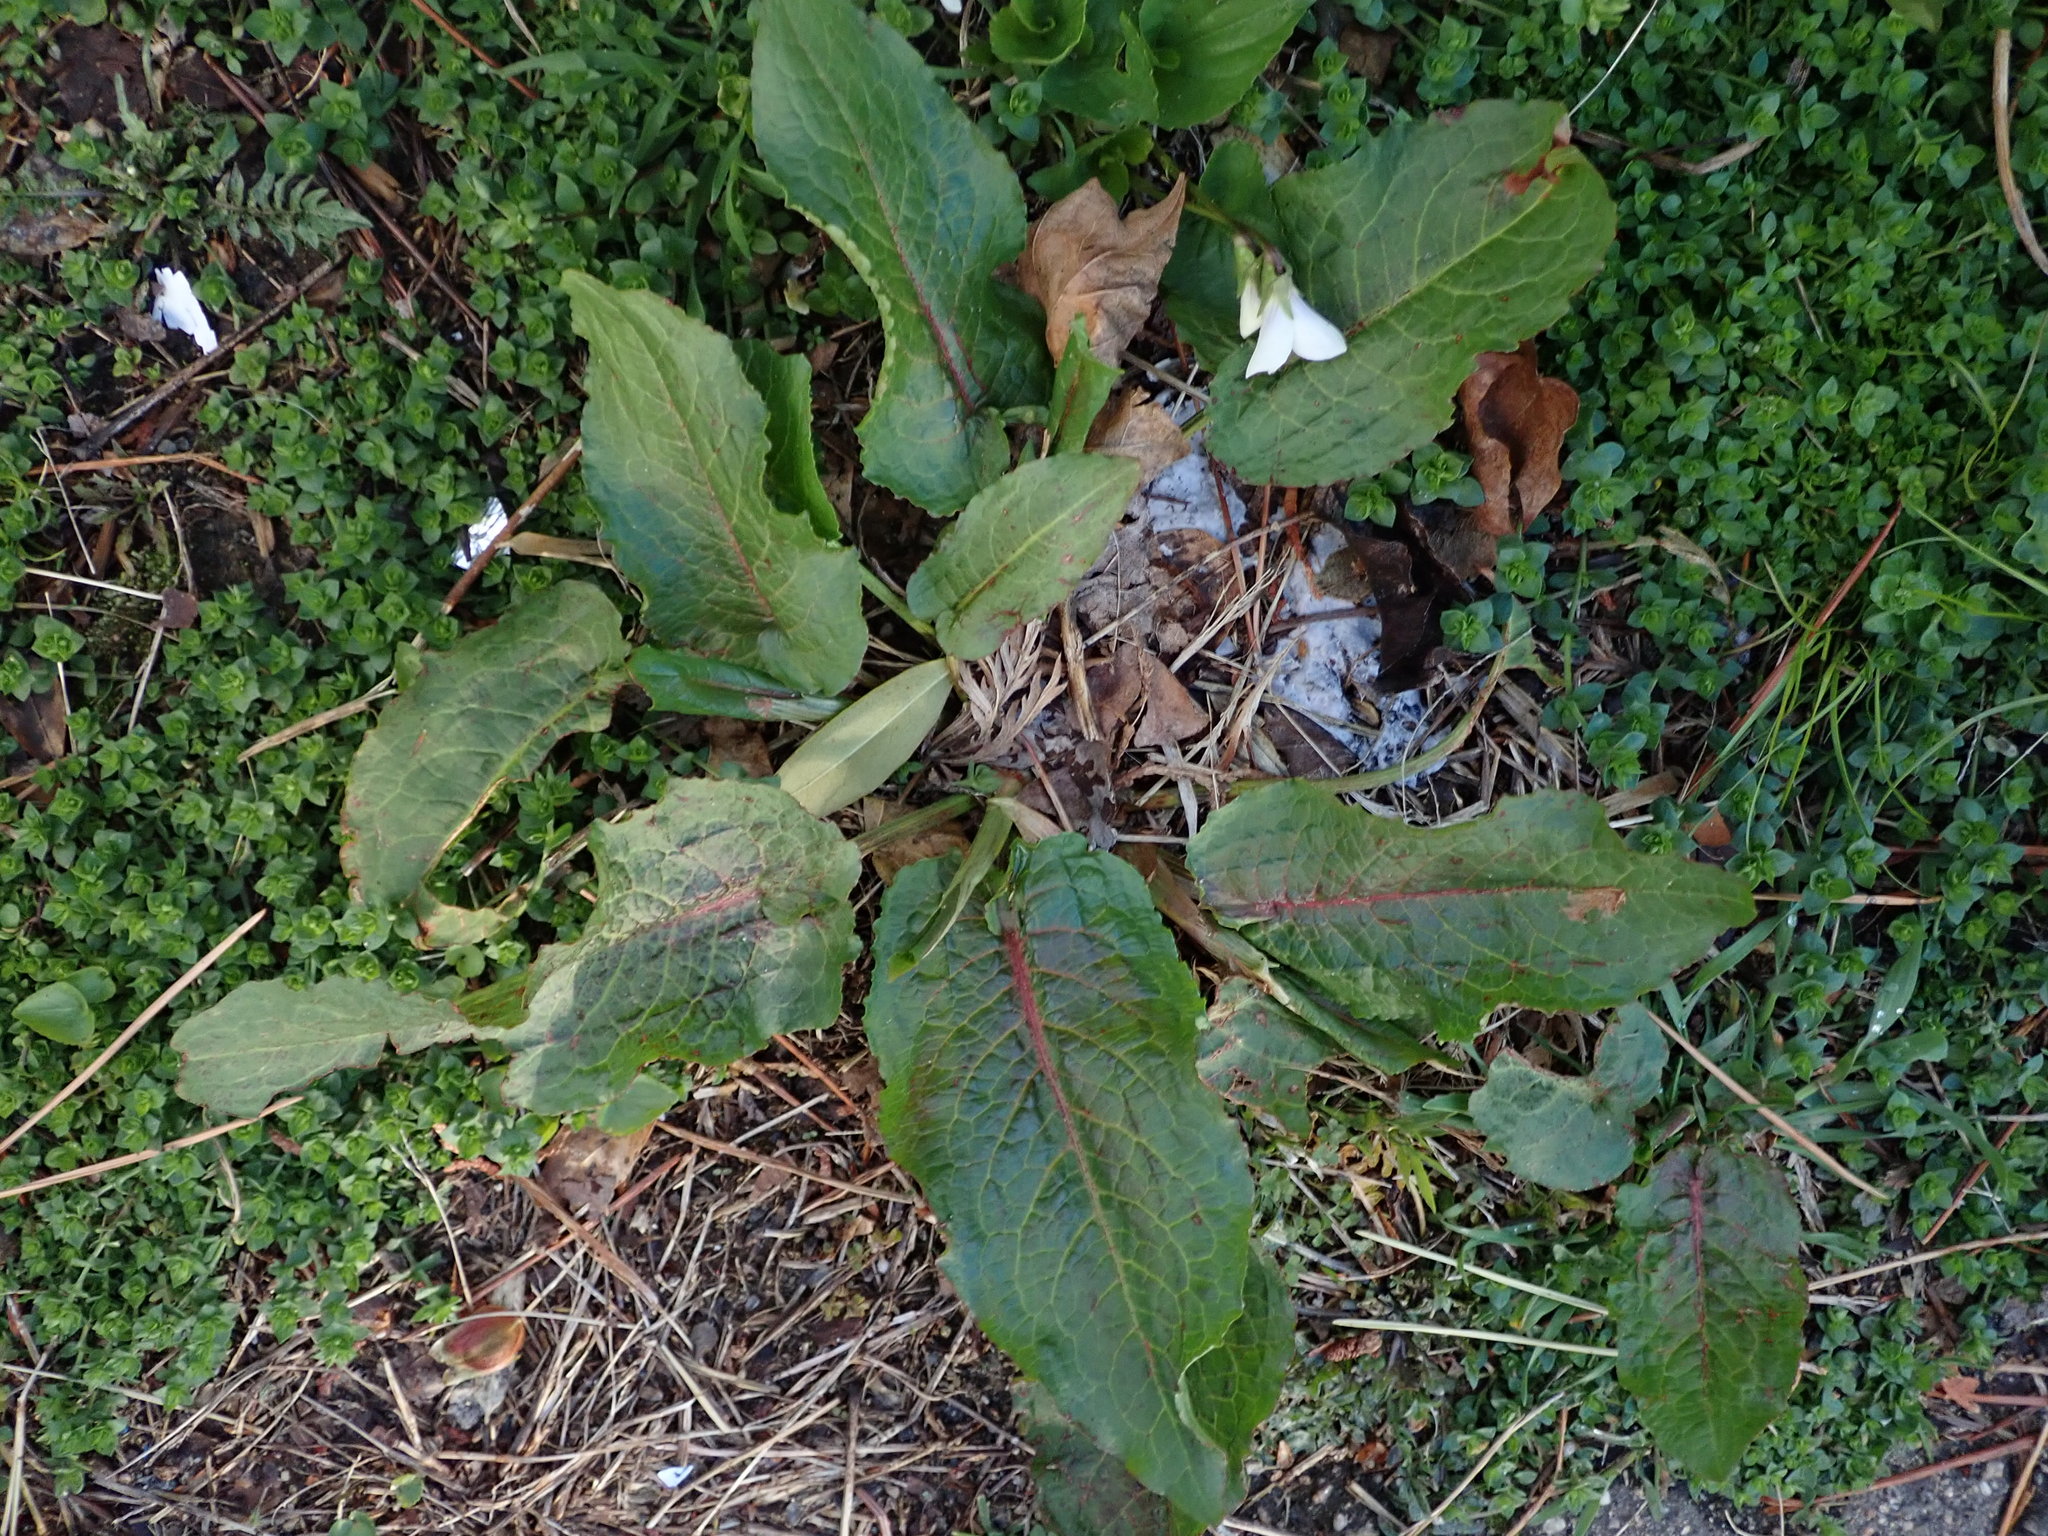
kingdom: Plantae
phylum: Tracheophyta
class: Magnoliopsida
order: Caryophyllales
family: Polygonaceae
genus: Rumex
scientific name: Rumex obtusifolius
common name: Bitter dock
